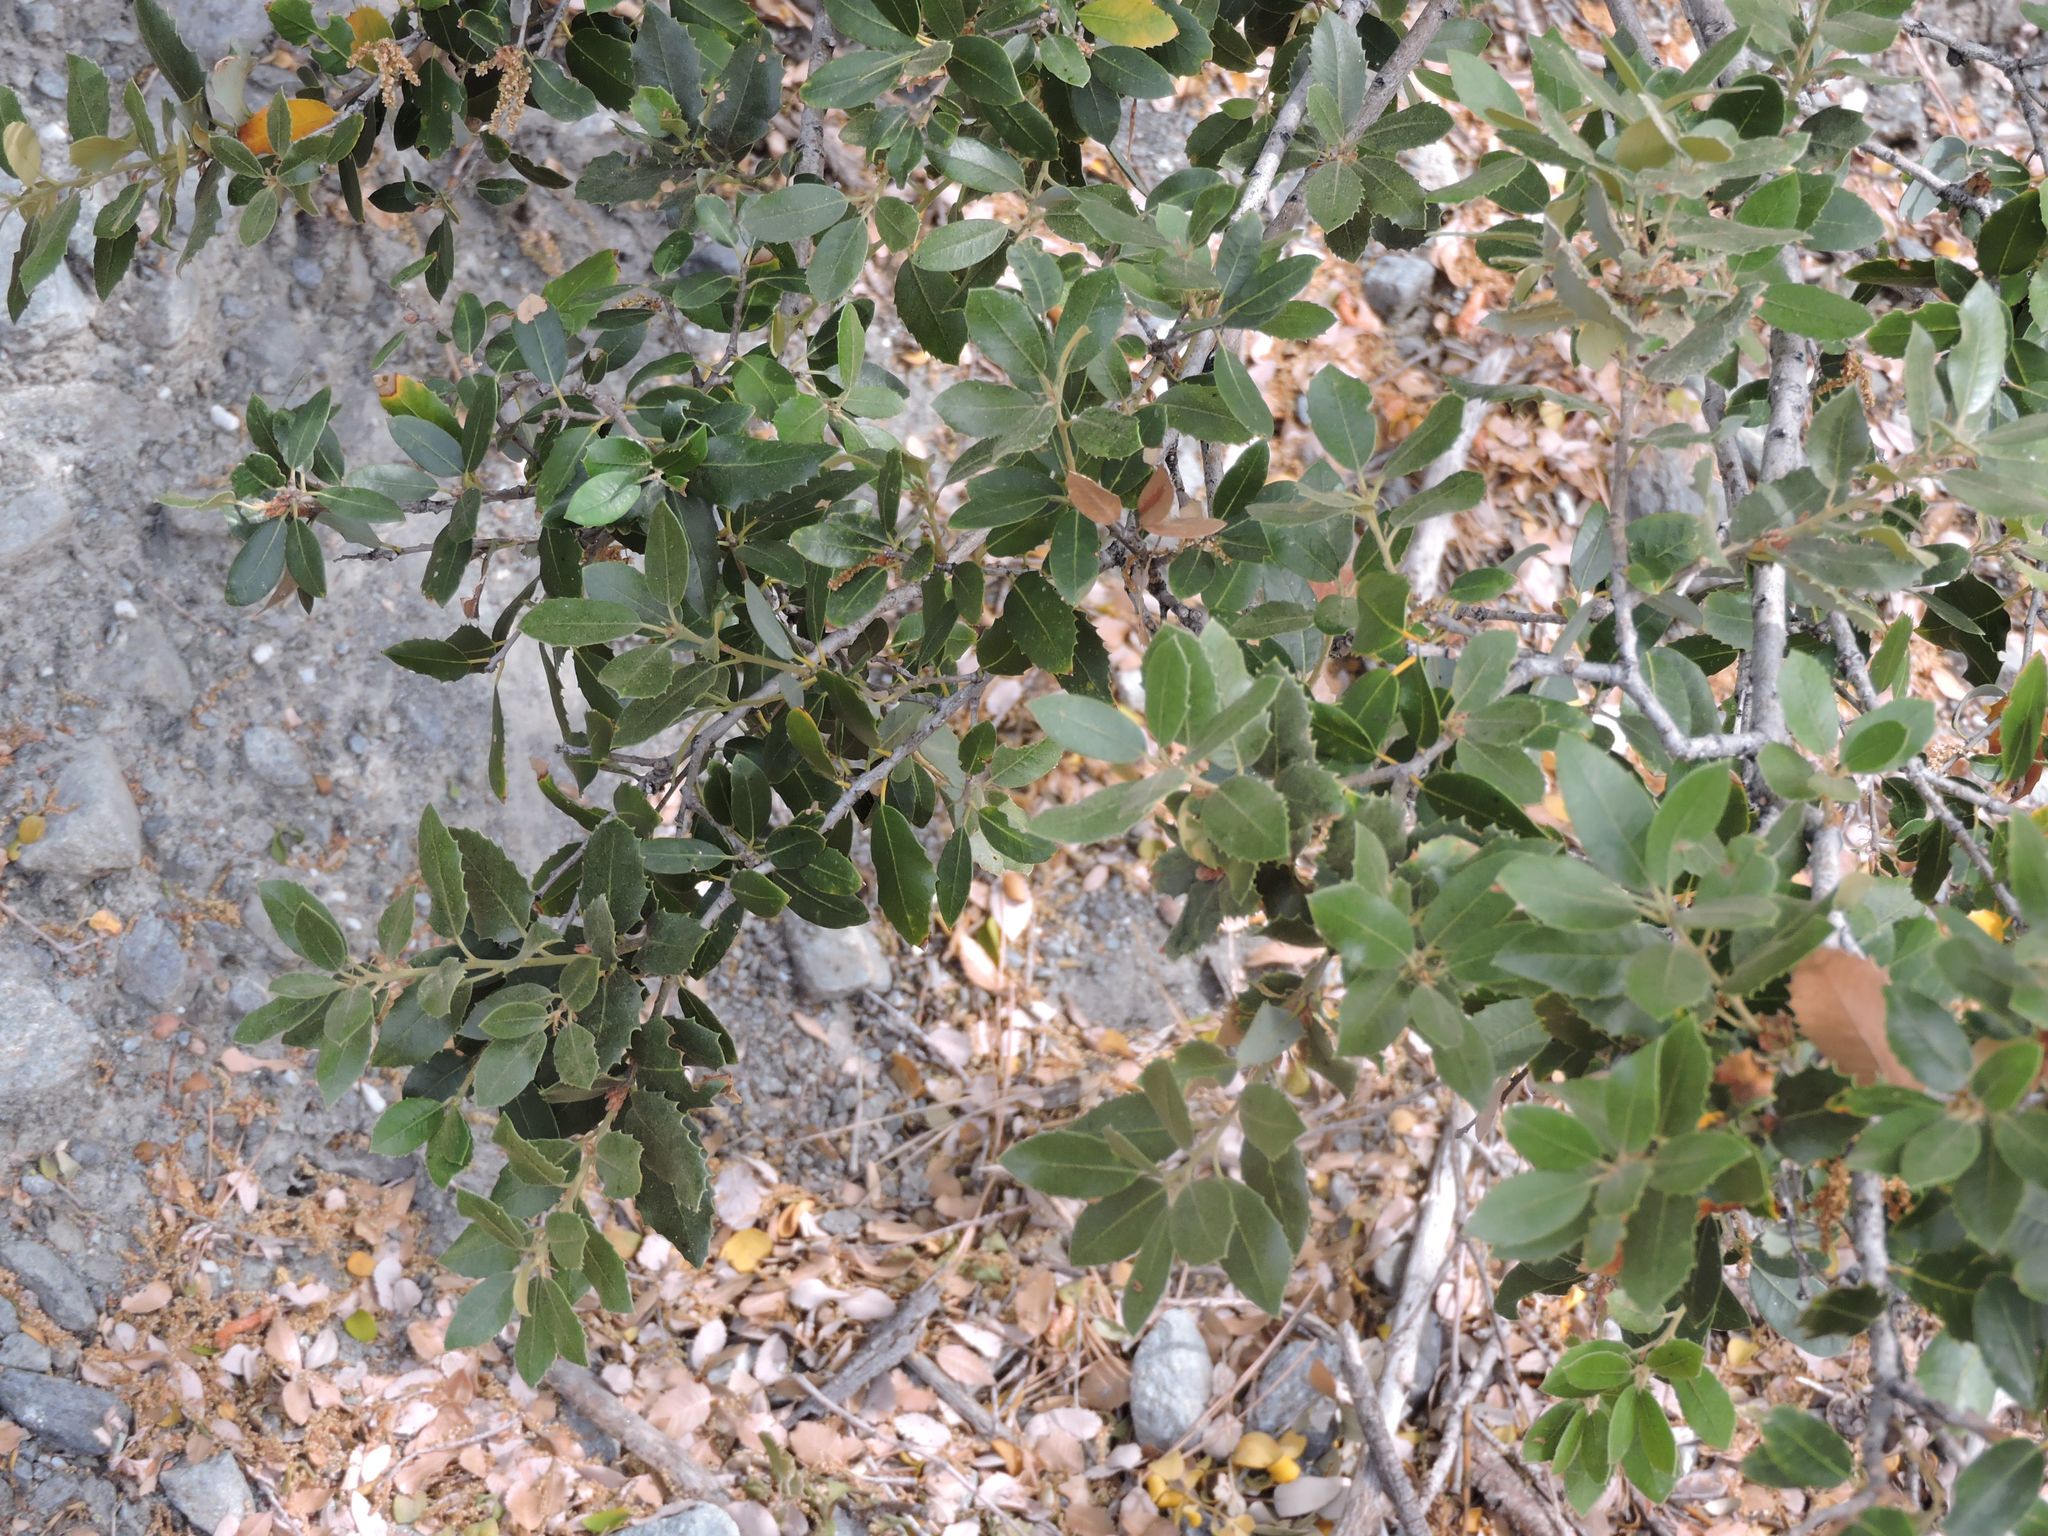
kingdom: Plantae
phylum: Tracheophyta
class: Magnoliopsida
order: Fagales
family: Fagaceae
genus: Quercus
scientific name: Quercus chrysolepis
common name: Canyon live oak
